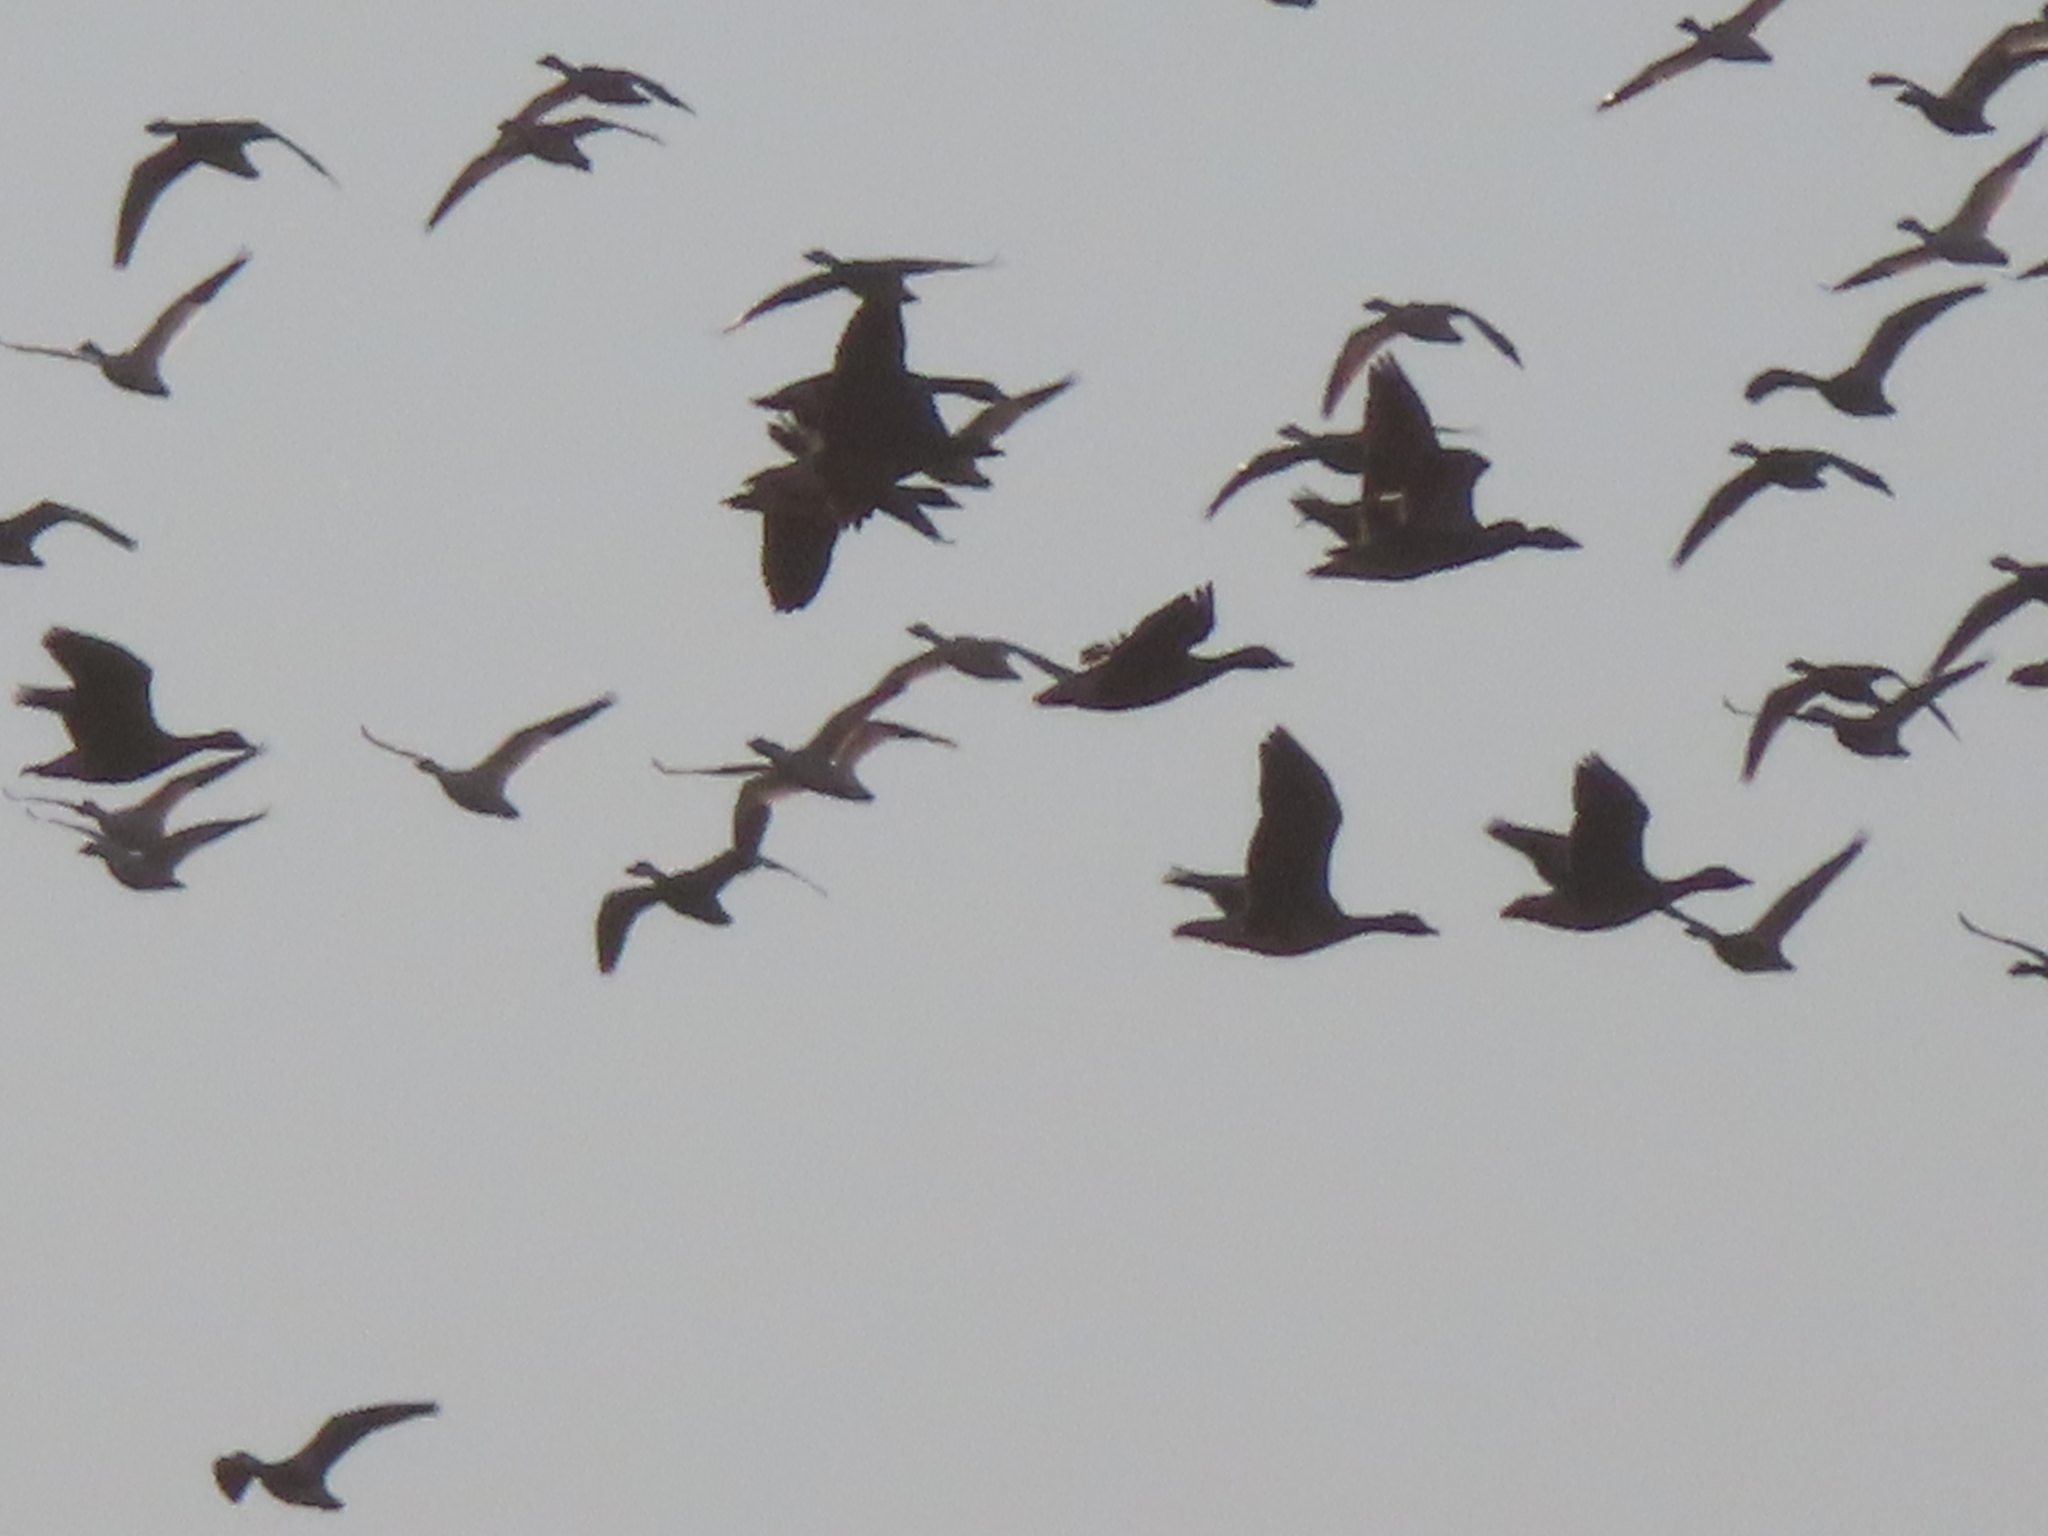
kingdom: Animalia
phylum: Chordata
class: Aves
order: Anseriformes
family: Anatidae
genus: Anser
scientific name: Anser caerulescens
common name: Snow goose
